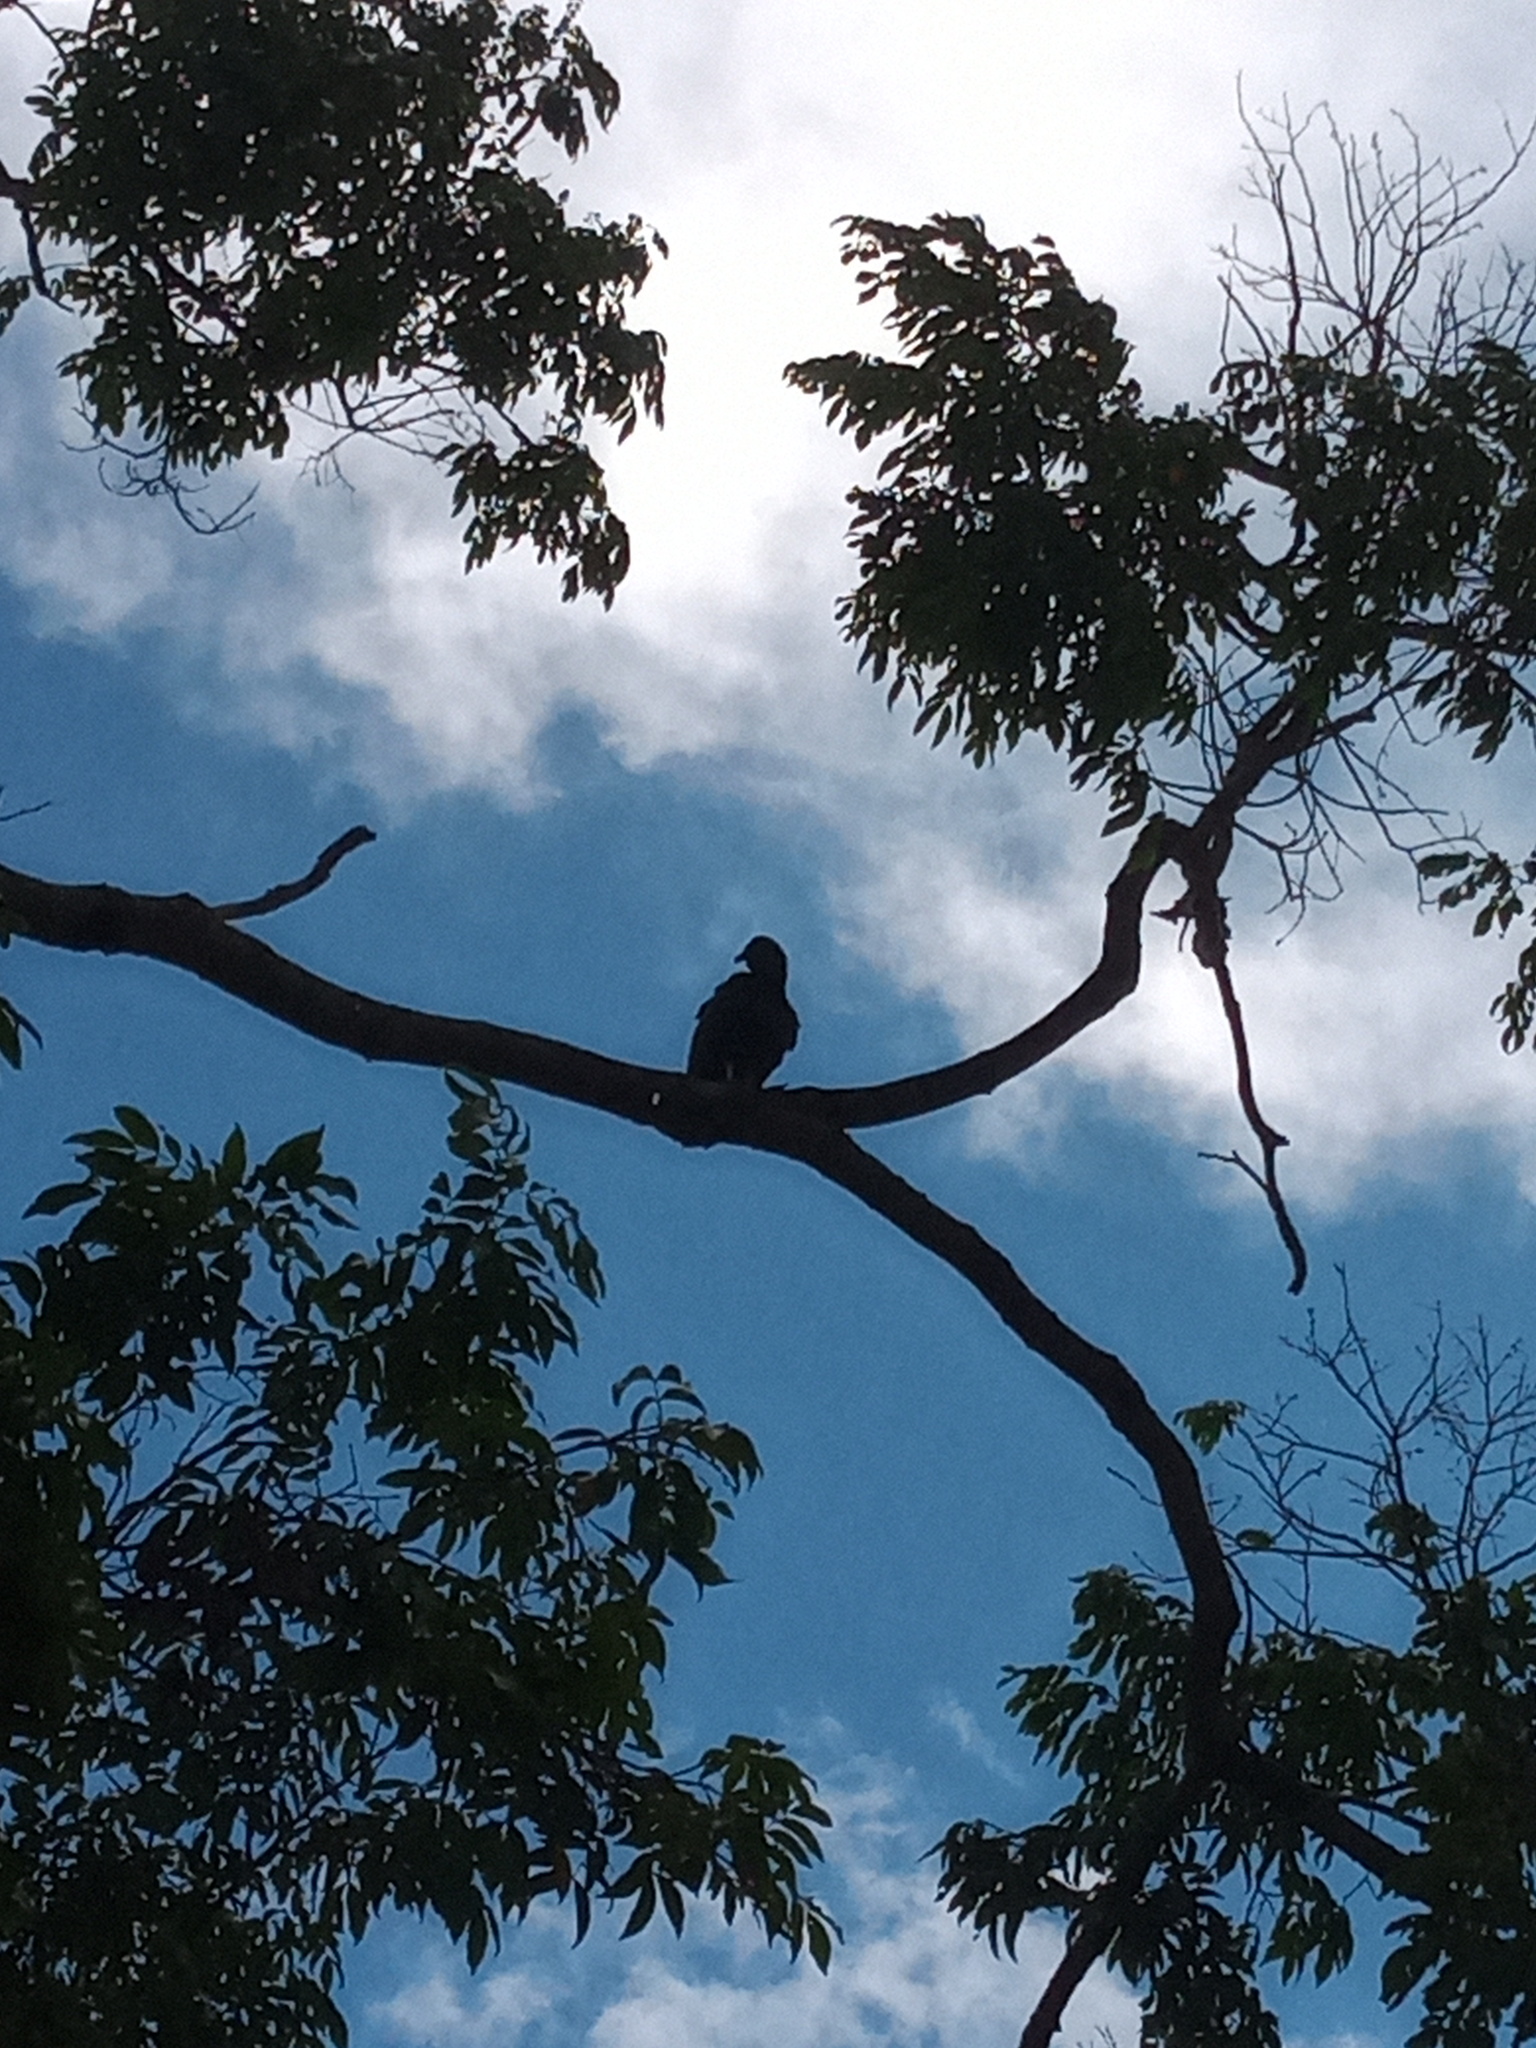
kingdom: Animalia
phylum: Chordata
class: Aves
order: Accipitriformes
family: Cathartidae
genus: Coragyps
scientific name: Coragyps atratus
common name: Black vulture
